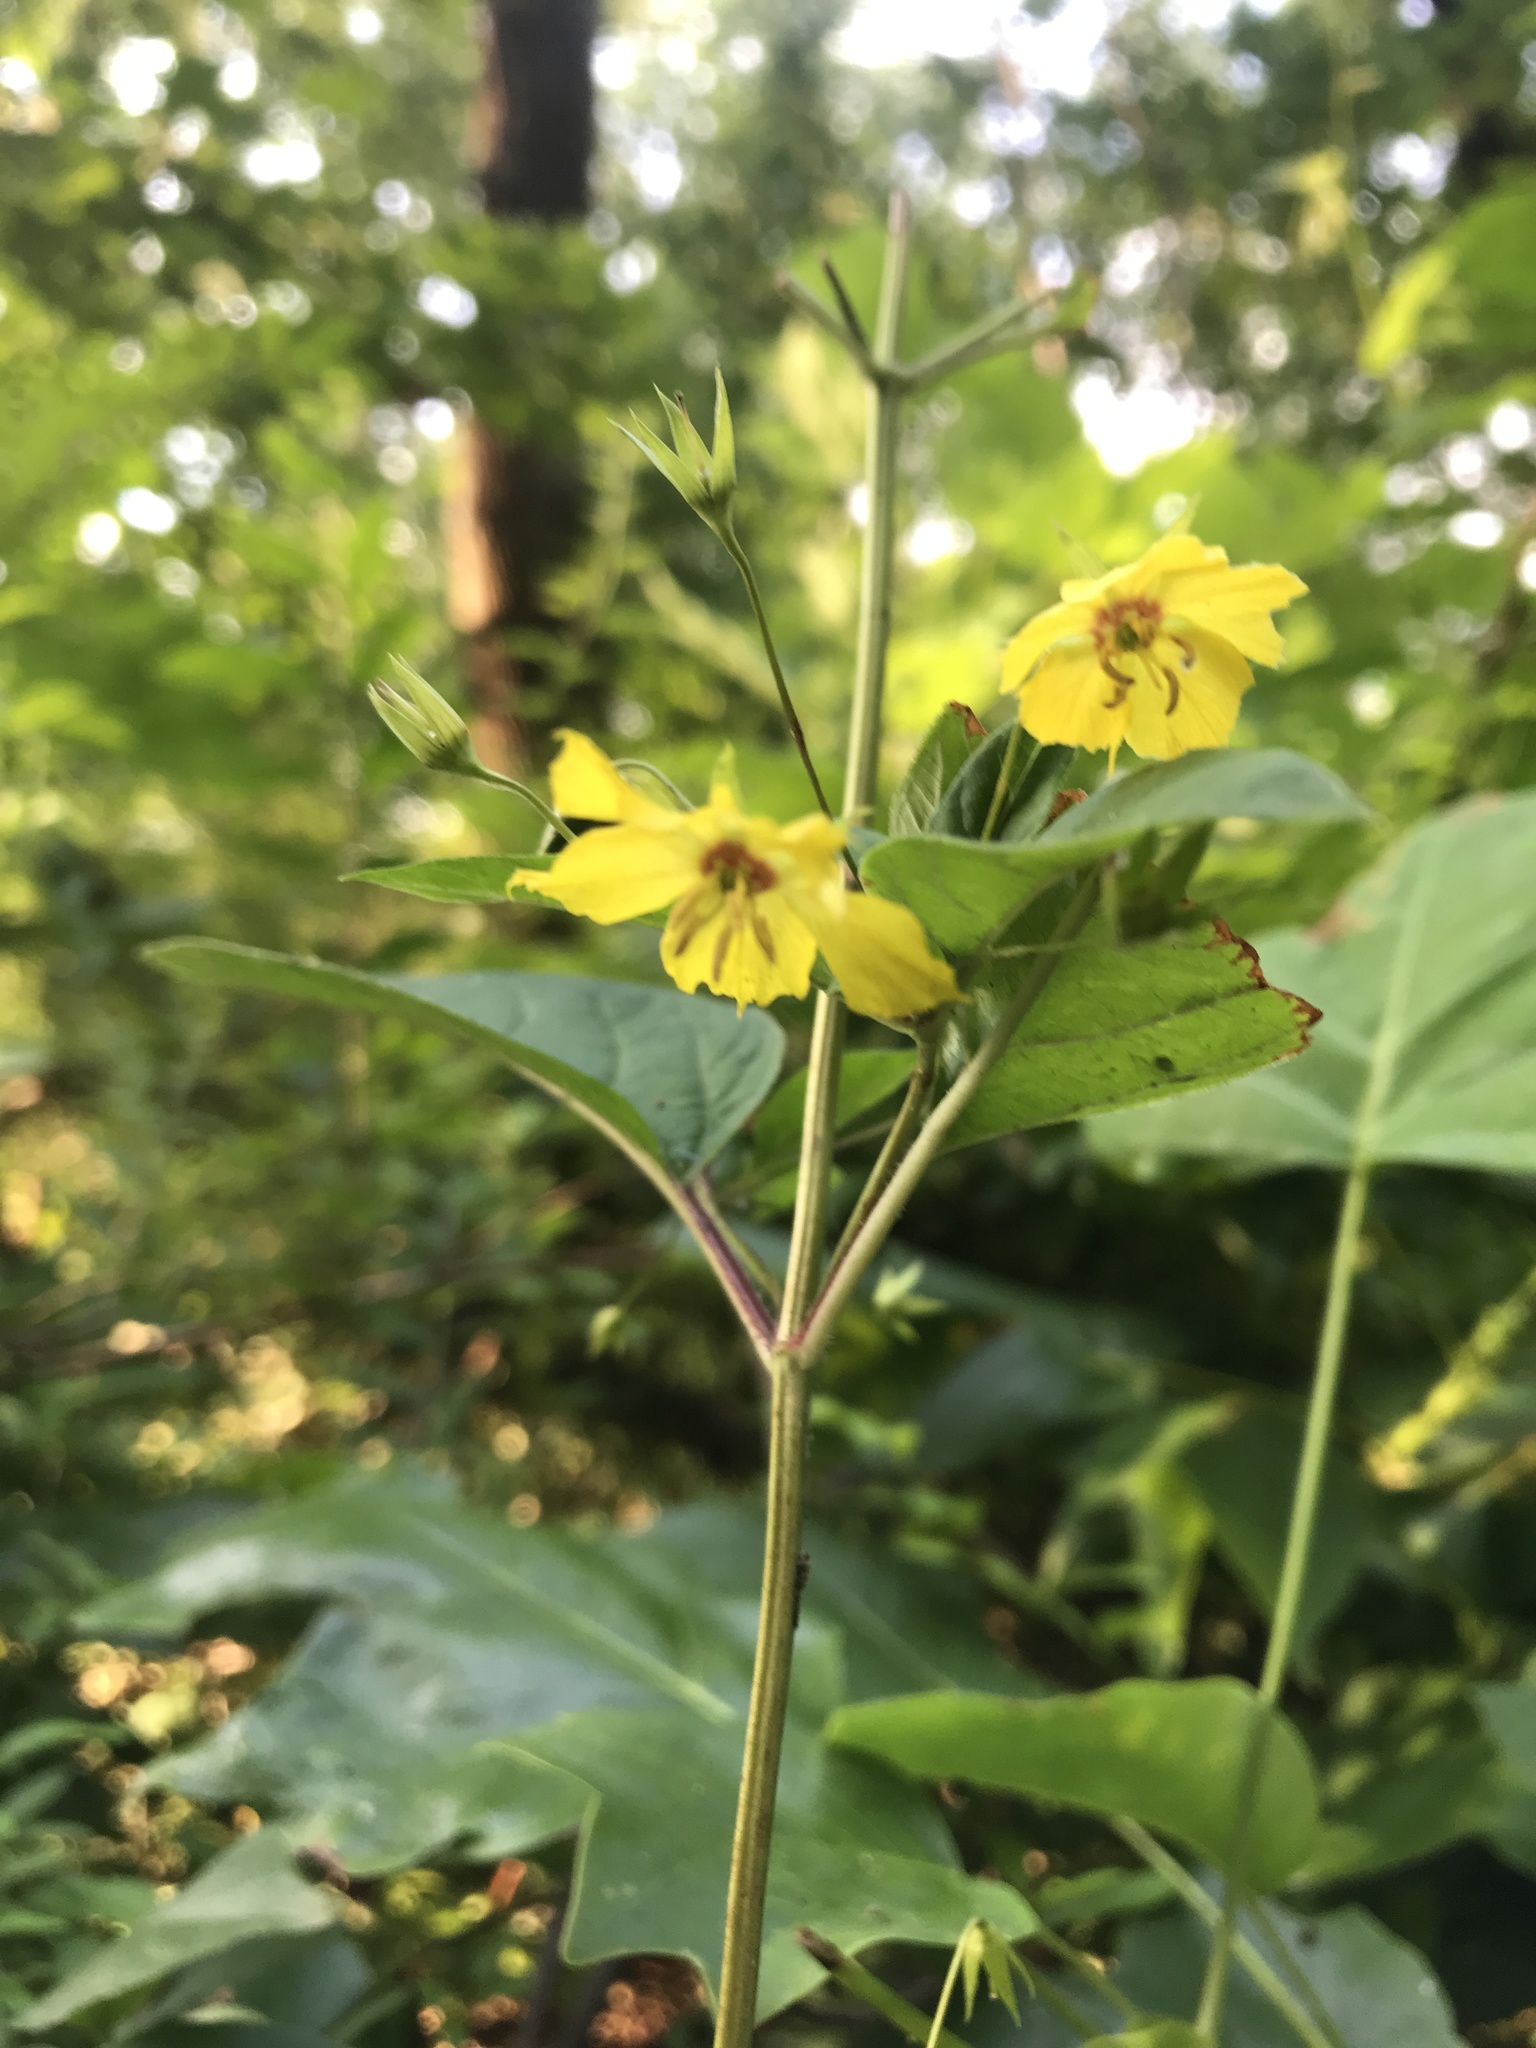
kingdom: Plantae
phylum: Tracheophyta
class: Magnoliopsida
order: Ericales
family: Primulaceae
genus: Lysimachia
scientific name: Lysimachia ciliata
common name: Fringed loosestrife
